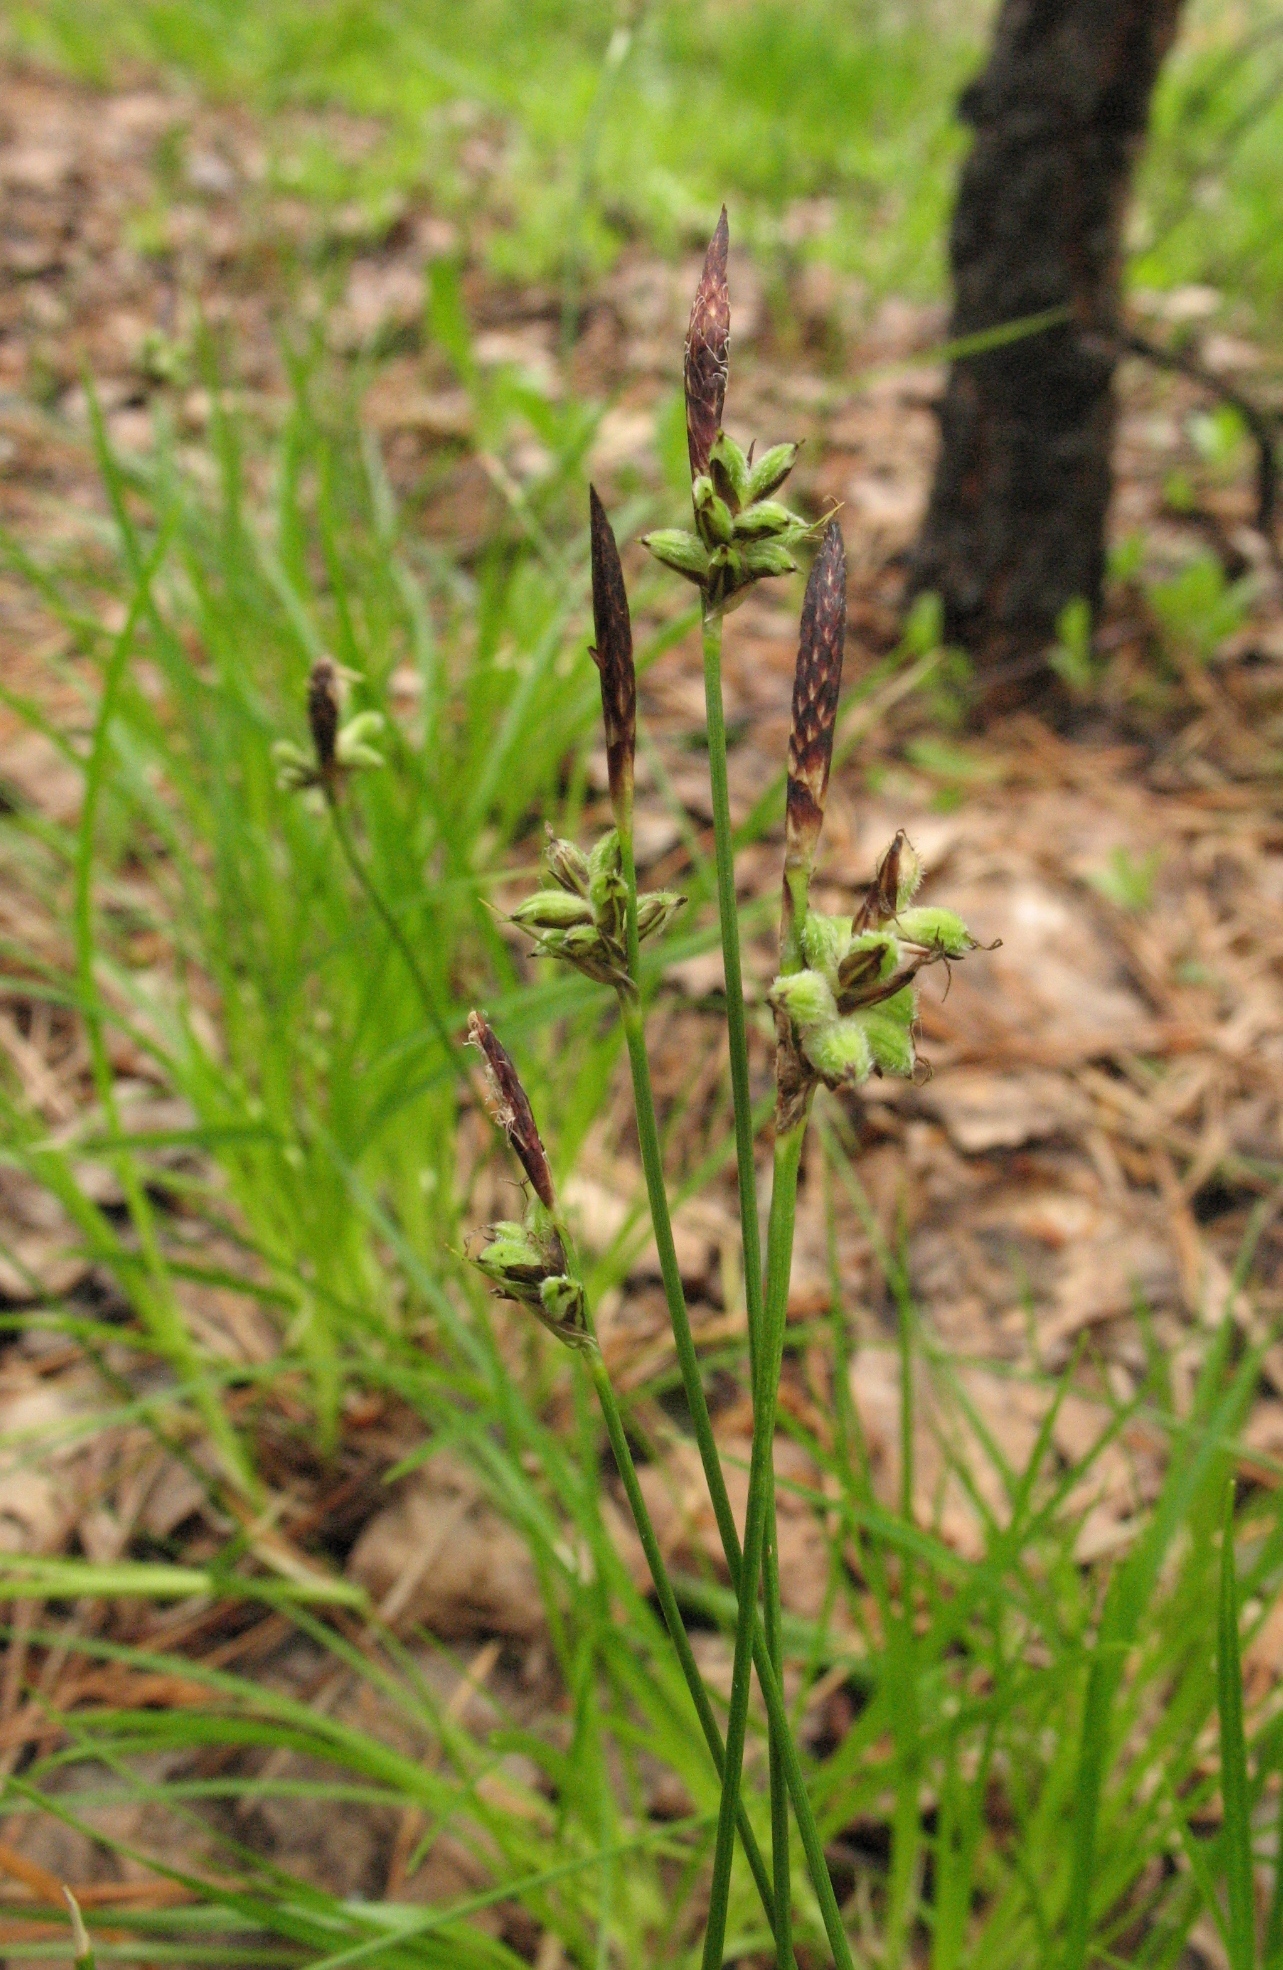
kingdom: Plantae
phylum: Tracheophyta
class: Liliopsida
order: Poales
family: Cyperaceae
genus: Carex
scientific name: Carex supina
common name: Lying-back sedge
